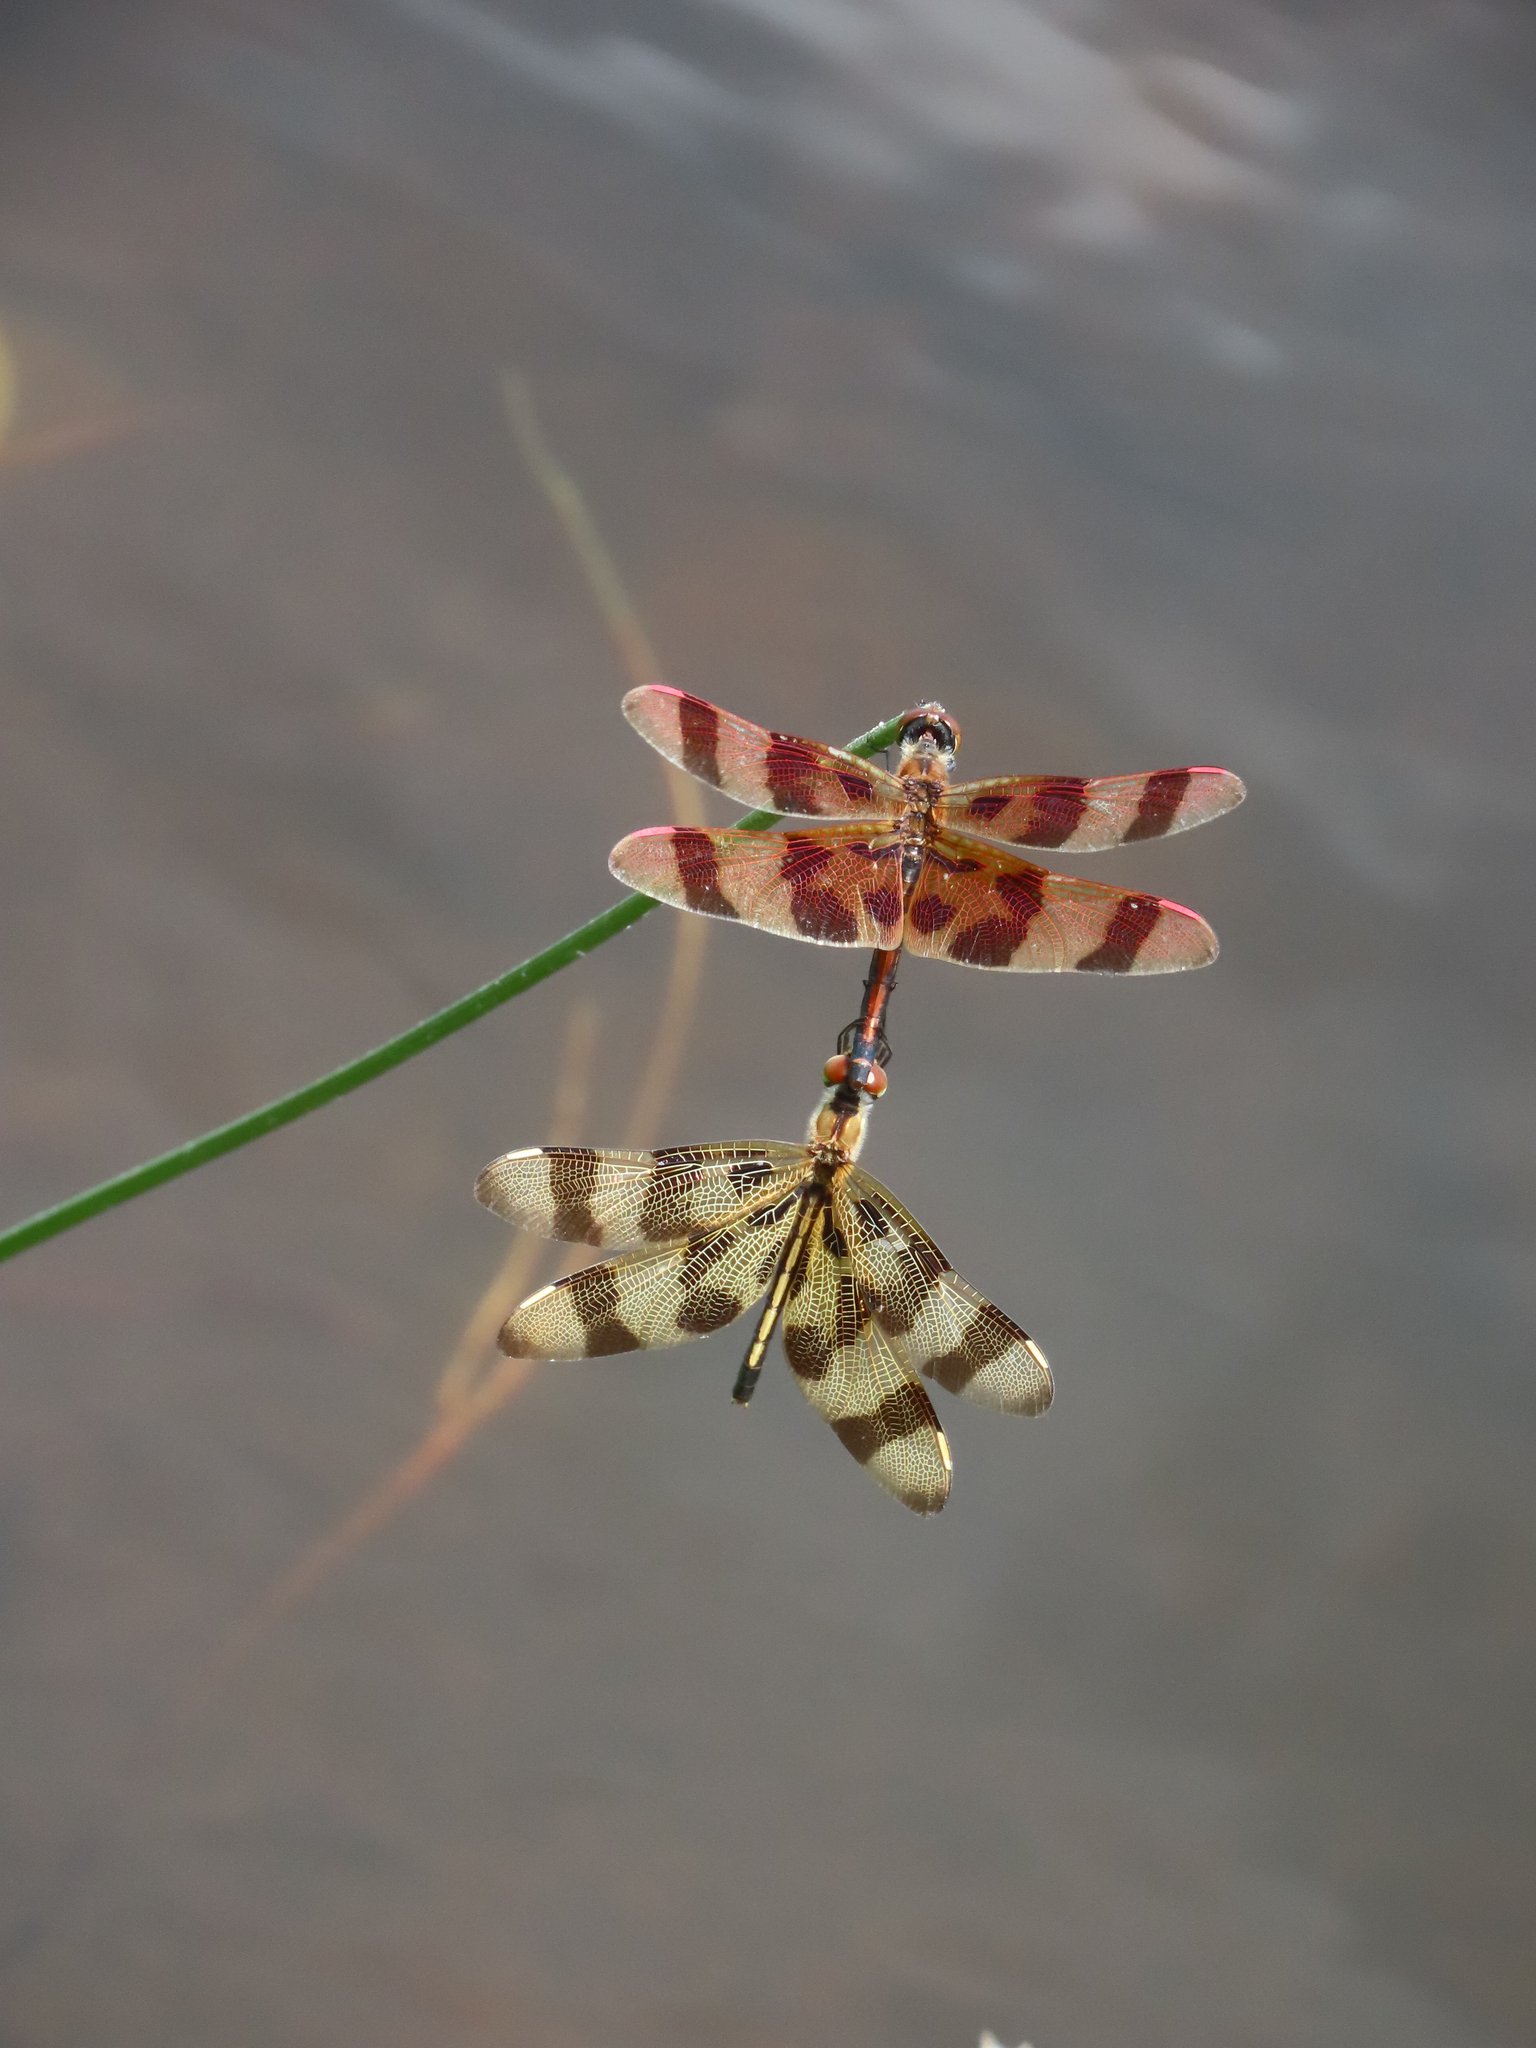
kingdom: Animalia
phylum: Arthropoda
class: Insecta
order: Odonata
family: Libellulidae
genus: Celithemis
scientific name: Celithemis eponina
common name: Halloween pennant
